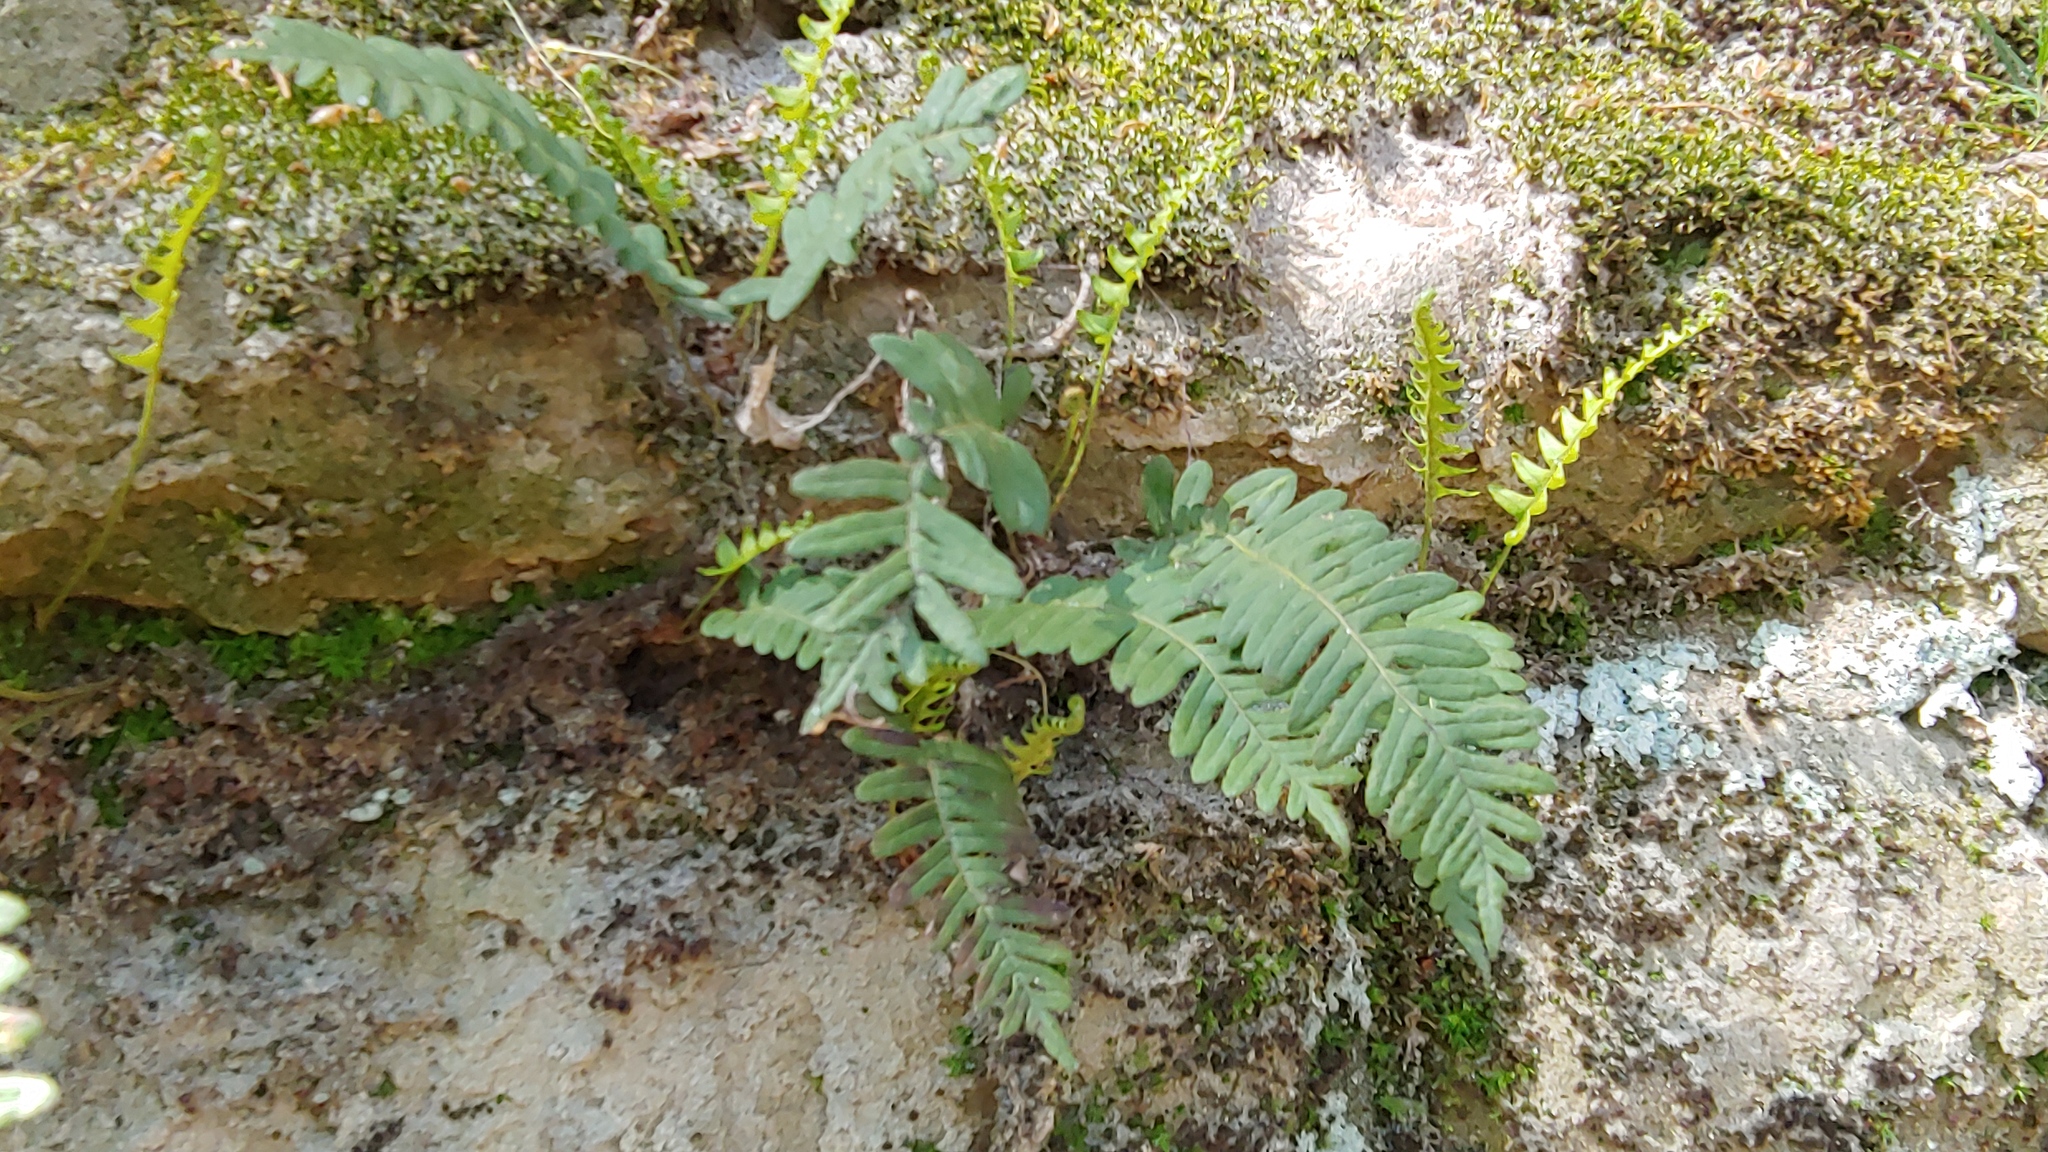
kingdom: Plantae
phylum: Tracheophyta
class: Polypodiopsida
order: Polypodiales
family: Polypodiaceae
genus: Polypodium
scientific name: Polypodium virginianum
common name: American wall fern
